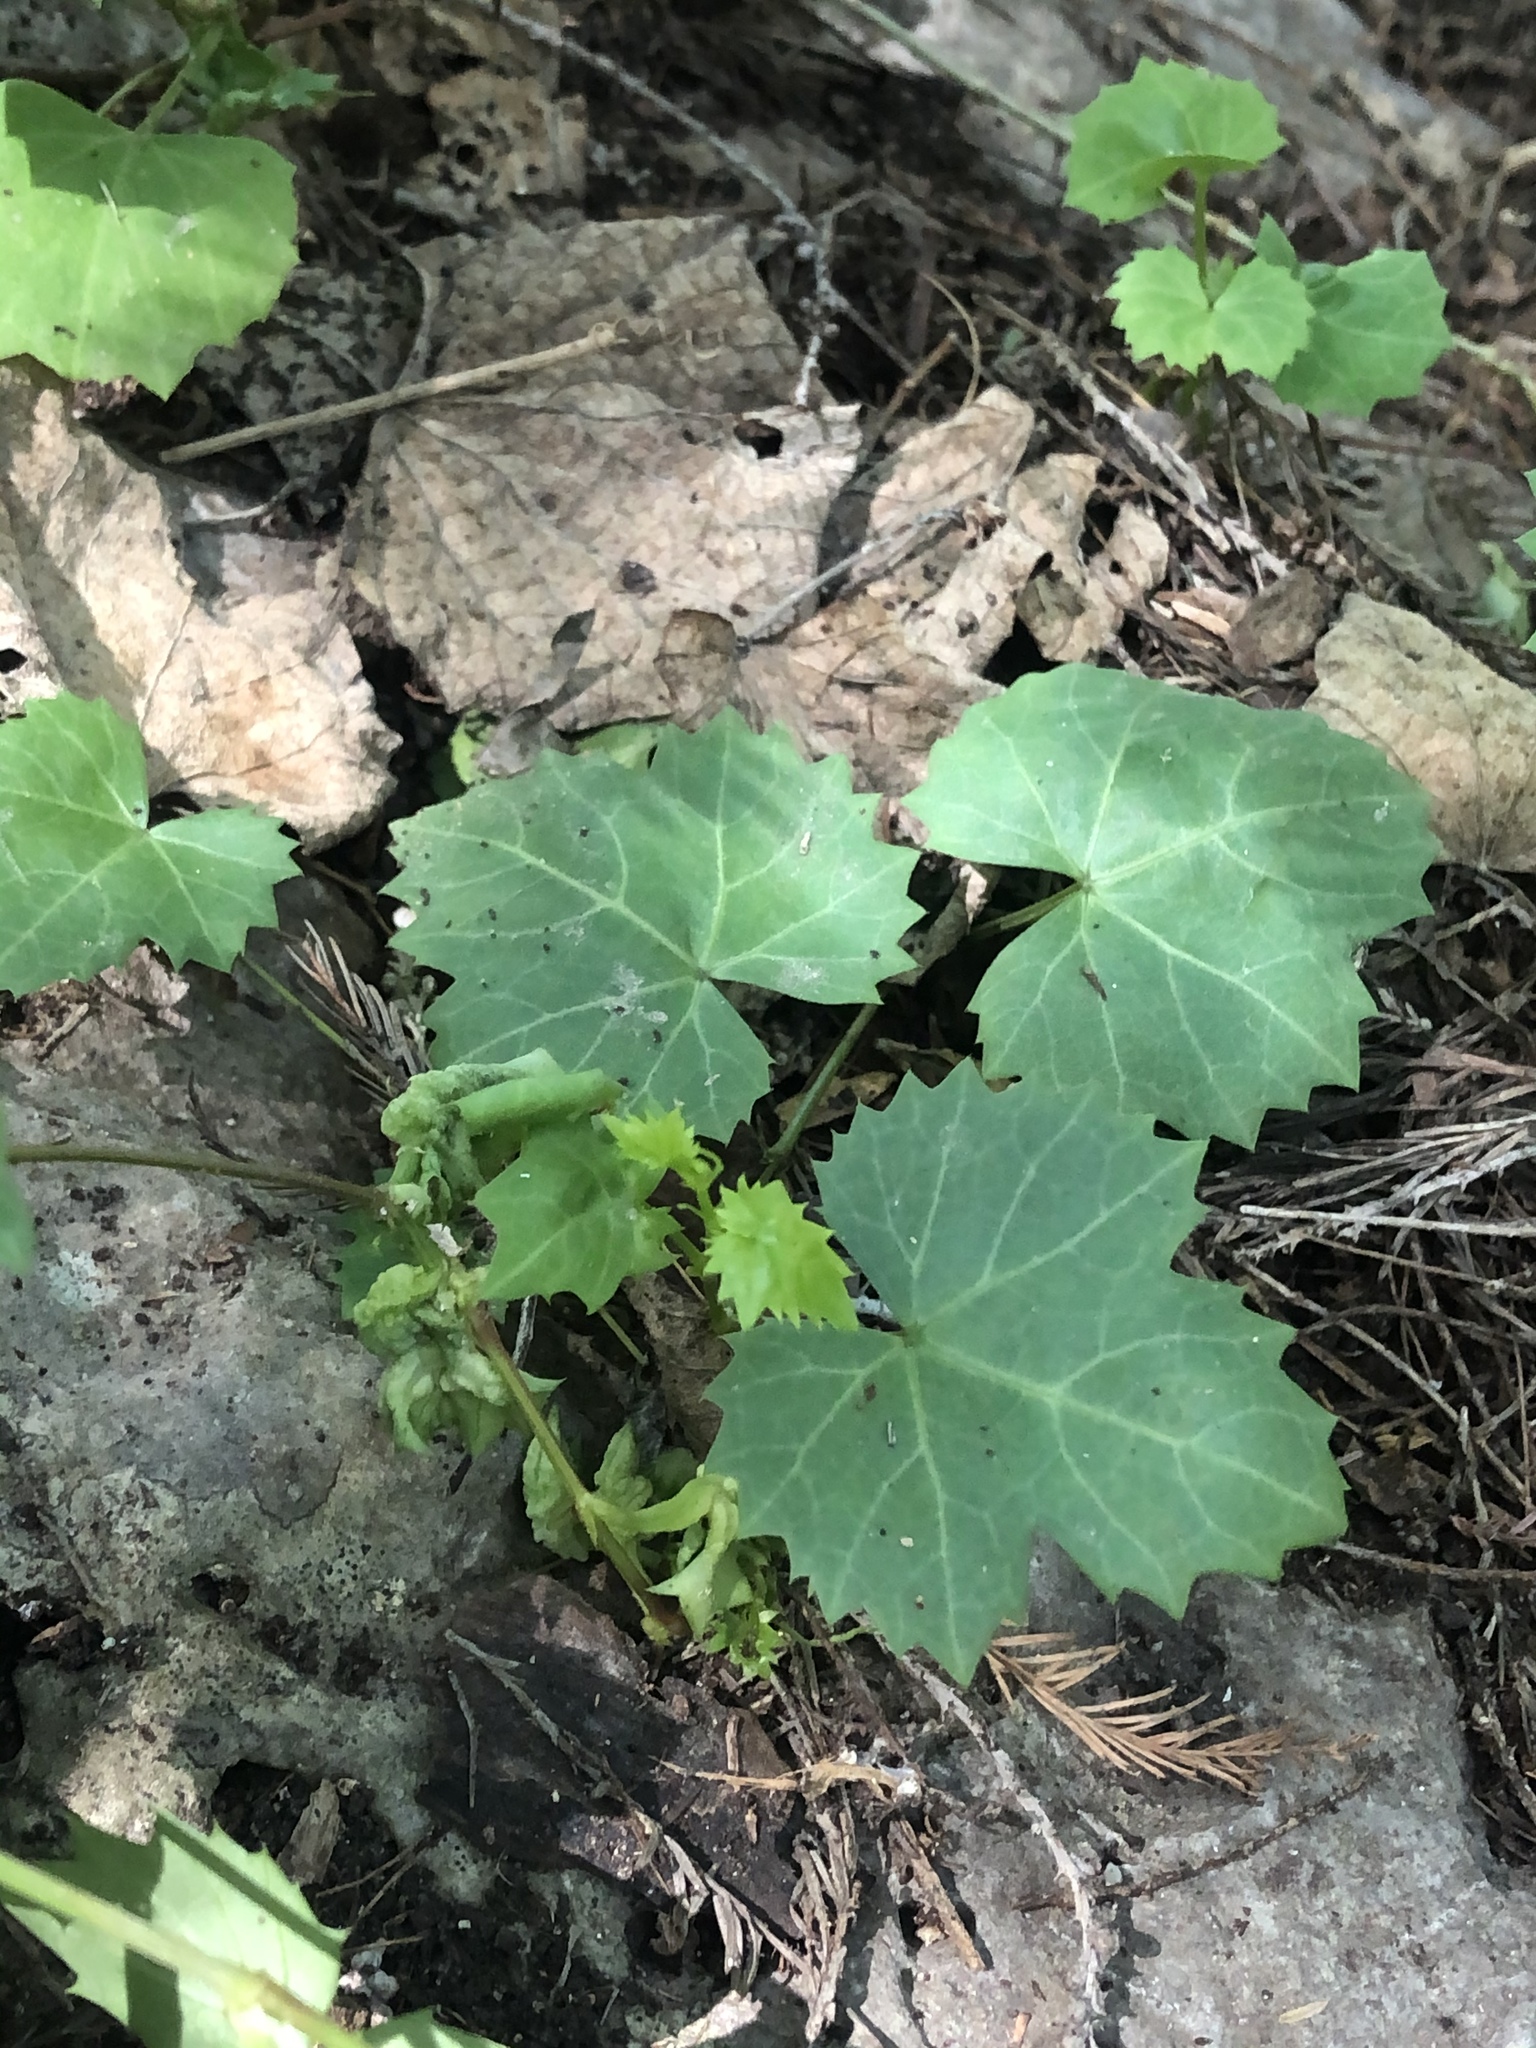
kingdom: Plantae
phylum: Tracheophyta
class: Magnoliopsida
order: Vitales
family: Vitaceae
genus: Cissus
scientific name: Cissus trifoliata
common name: Vine-sorrel
